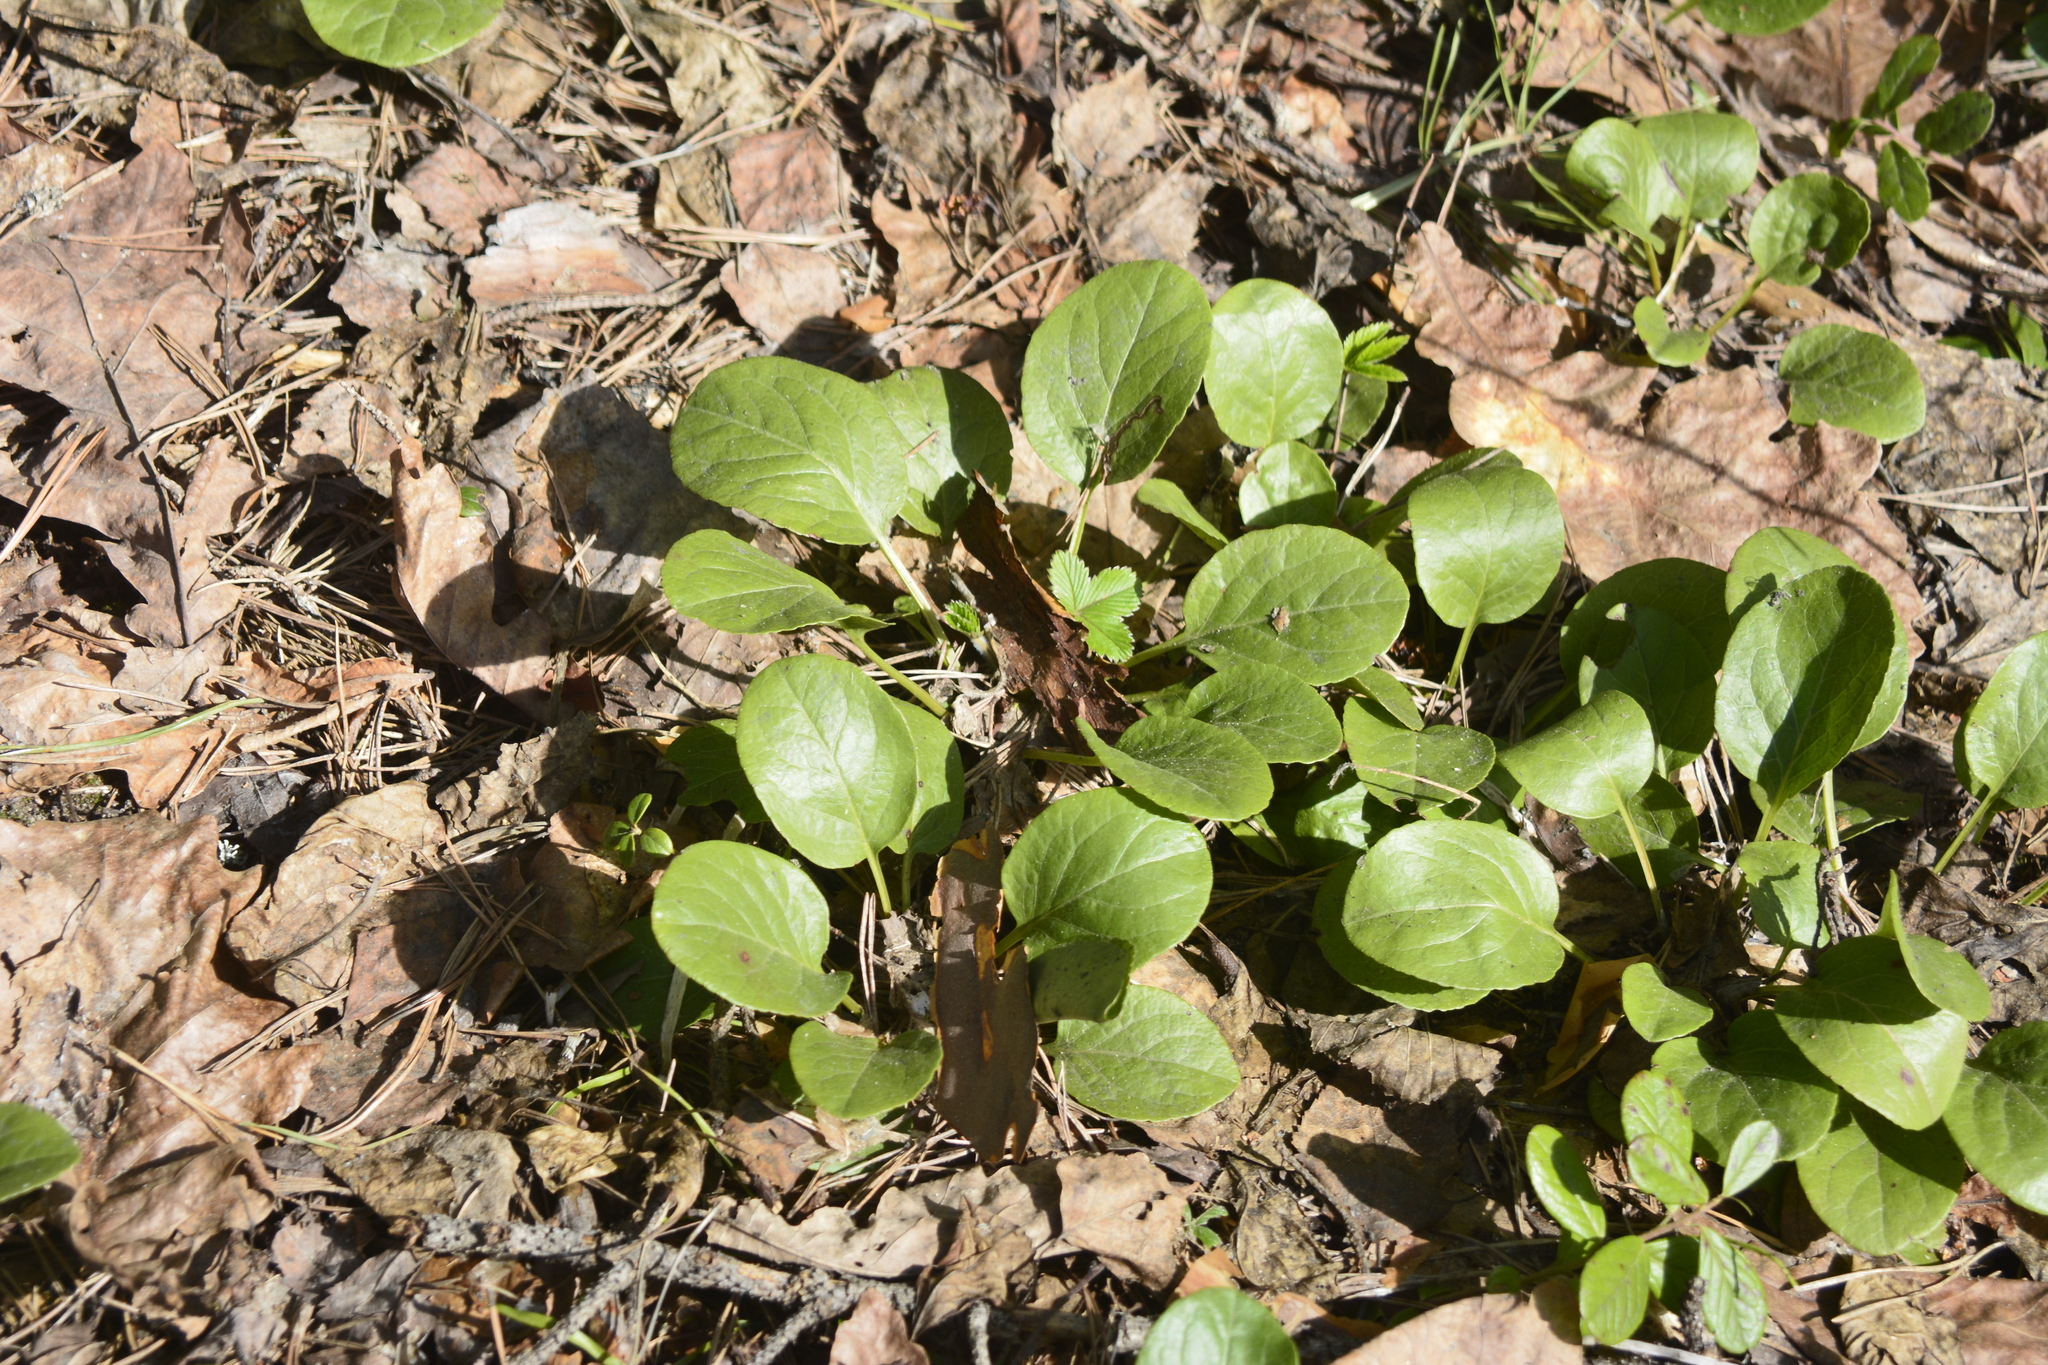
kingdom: Plantae
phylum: Tracheophyta
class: Magnoliopsida
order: Ericales
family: Ericaceae
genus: Pyrola
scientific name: Pyrola rotundifolia
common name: Round-leaved wintergreen
